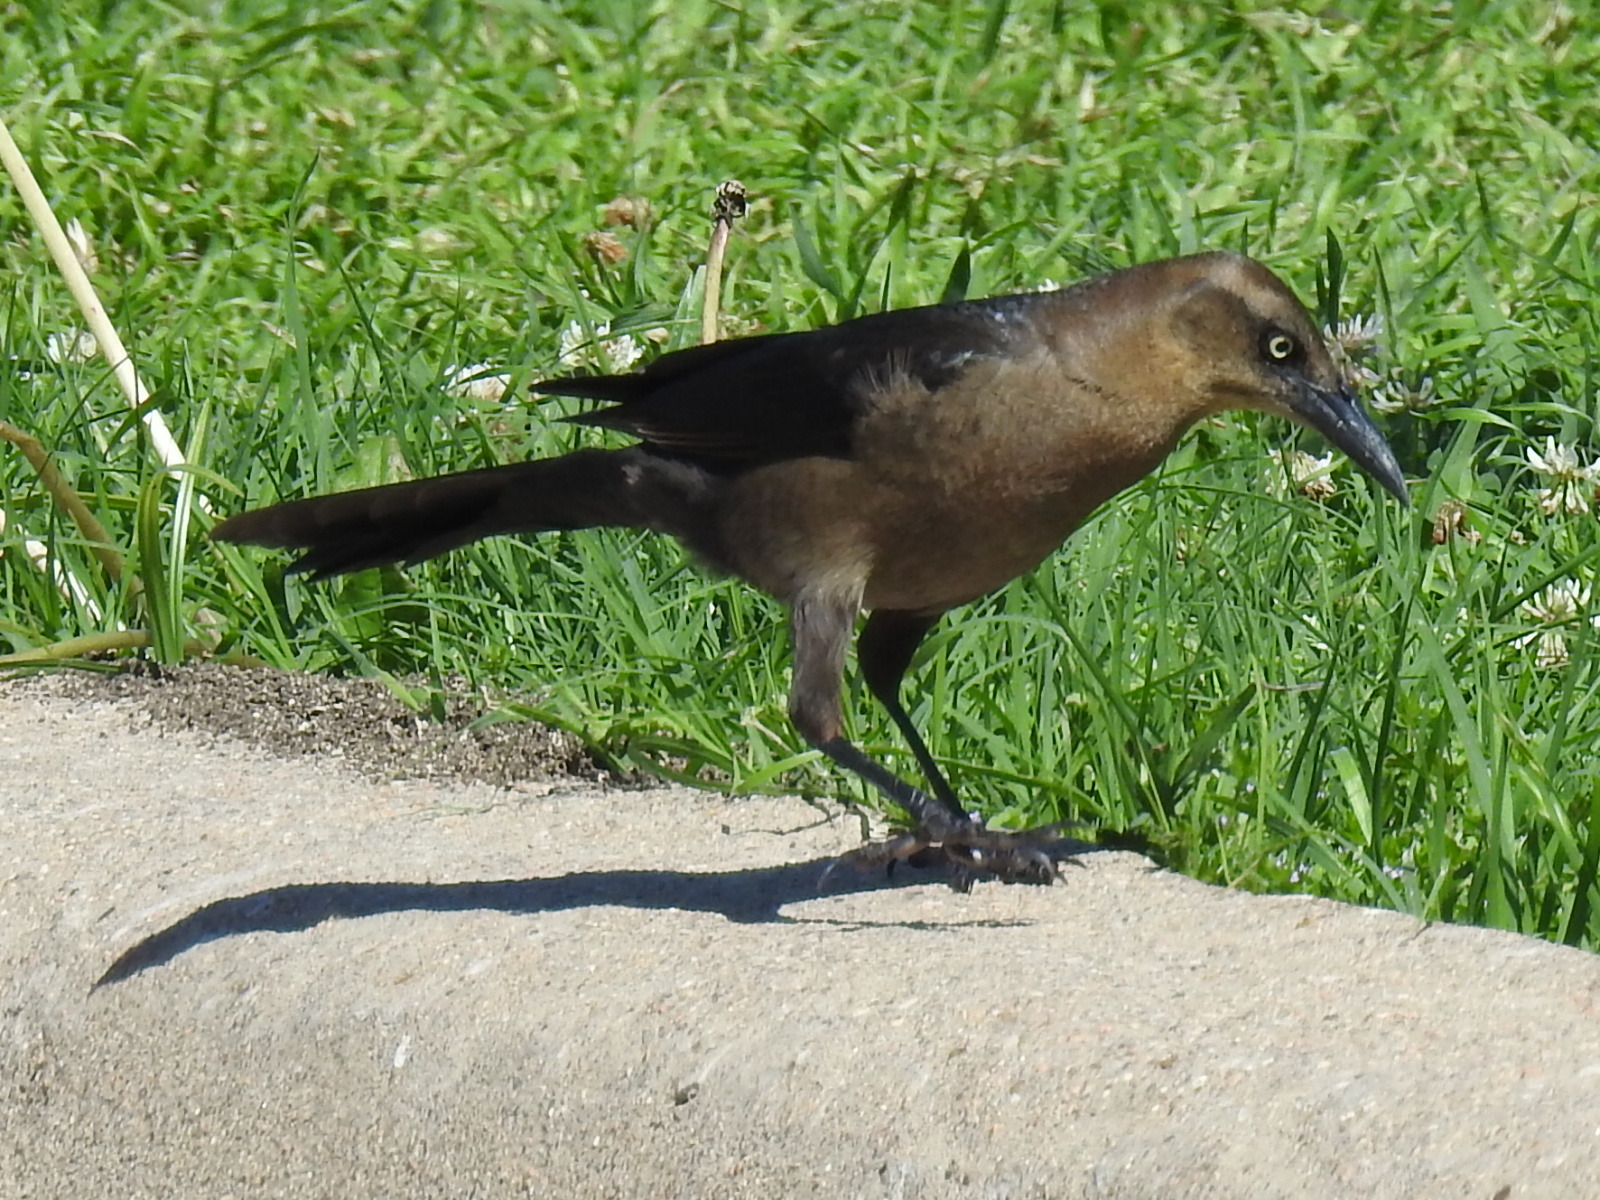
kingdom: Animalia
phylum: Chordata
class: Aves
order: Passeriformes
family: Icteridae
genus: Quiscalus
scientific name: Quiscalus mexicanus
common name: Great-tailed grackle
